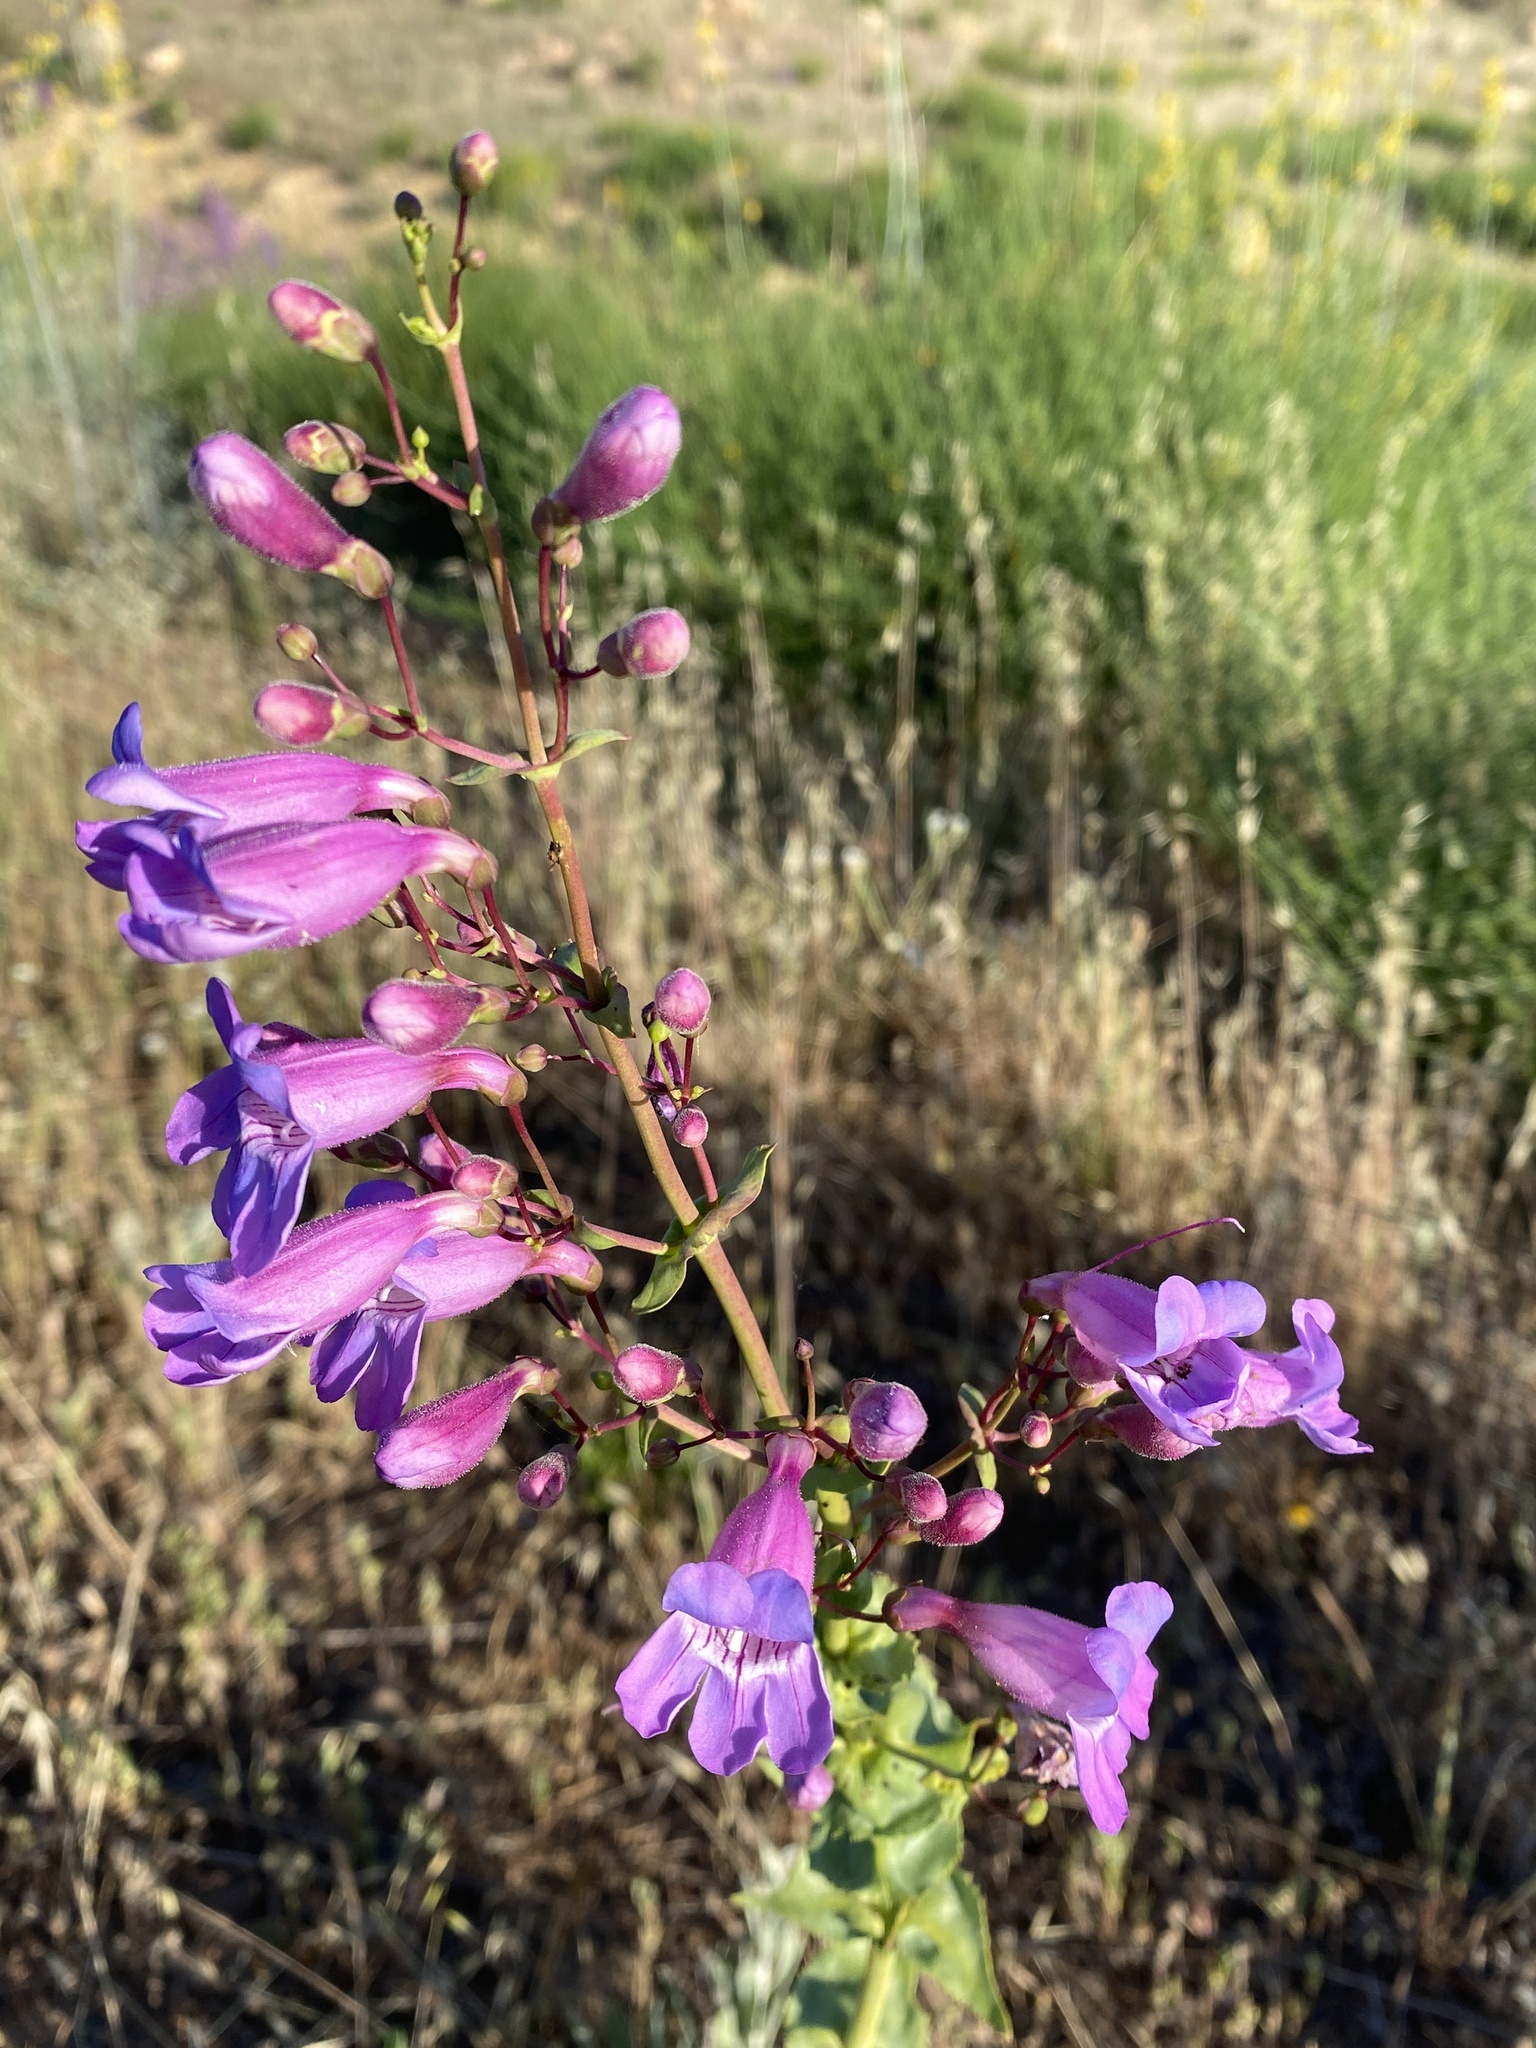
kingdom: Plantae
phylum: Tracheophyta
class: Magnoliopsida
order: Lamiales
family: Plantaginaceae
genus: Penstemon
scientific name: Penstemon spectabilis
